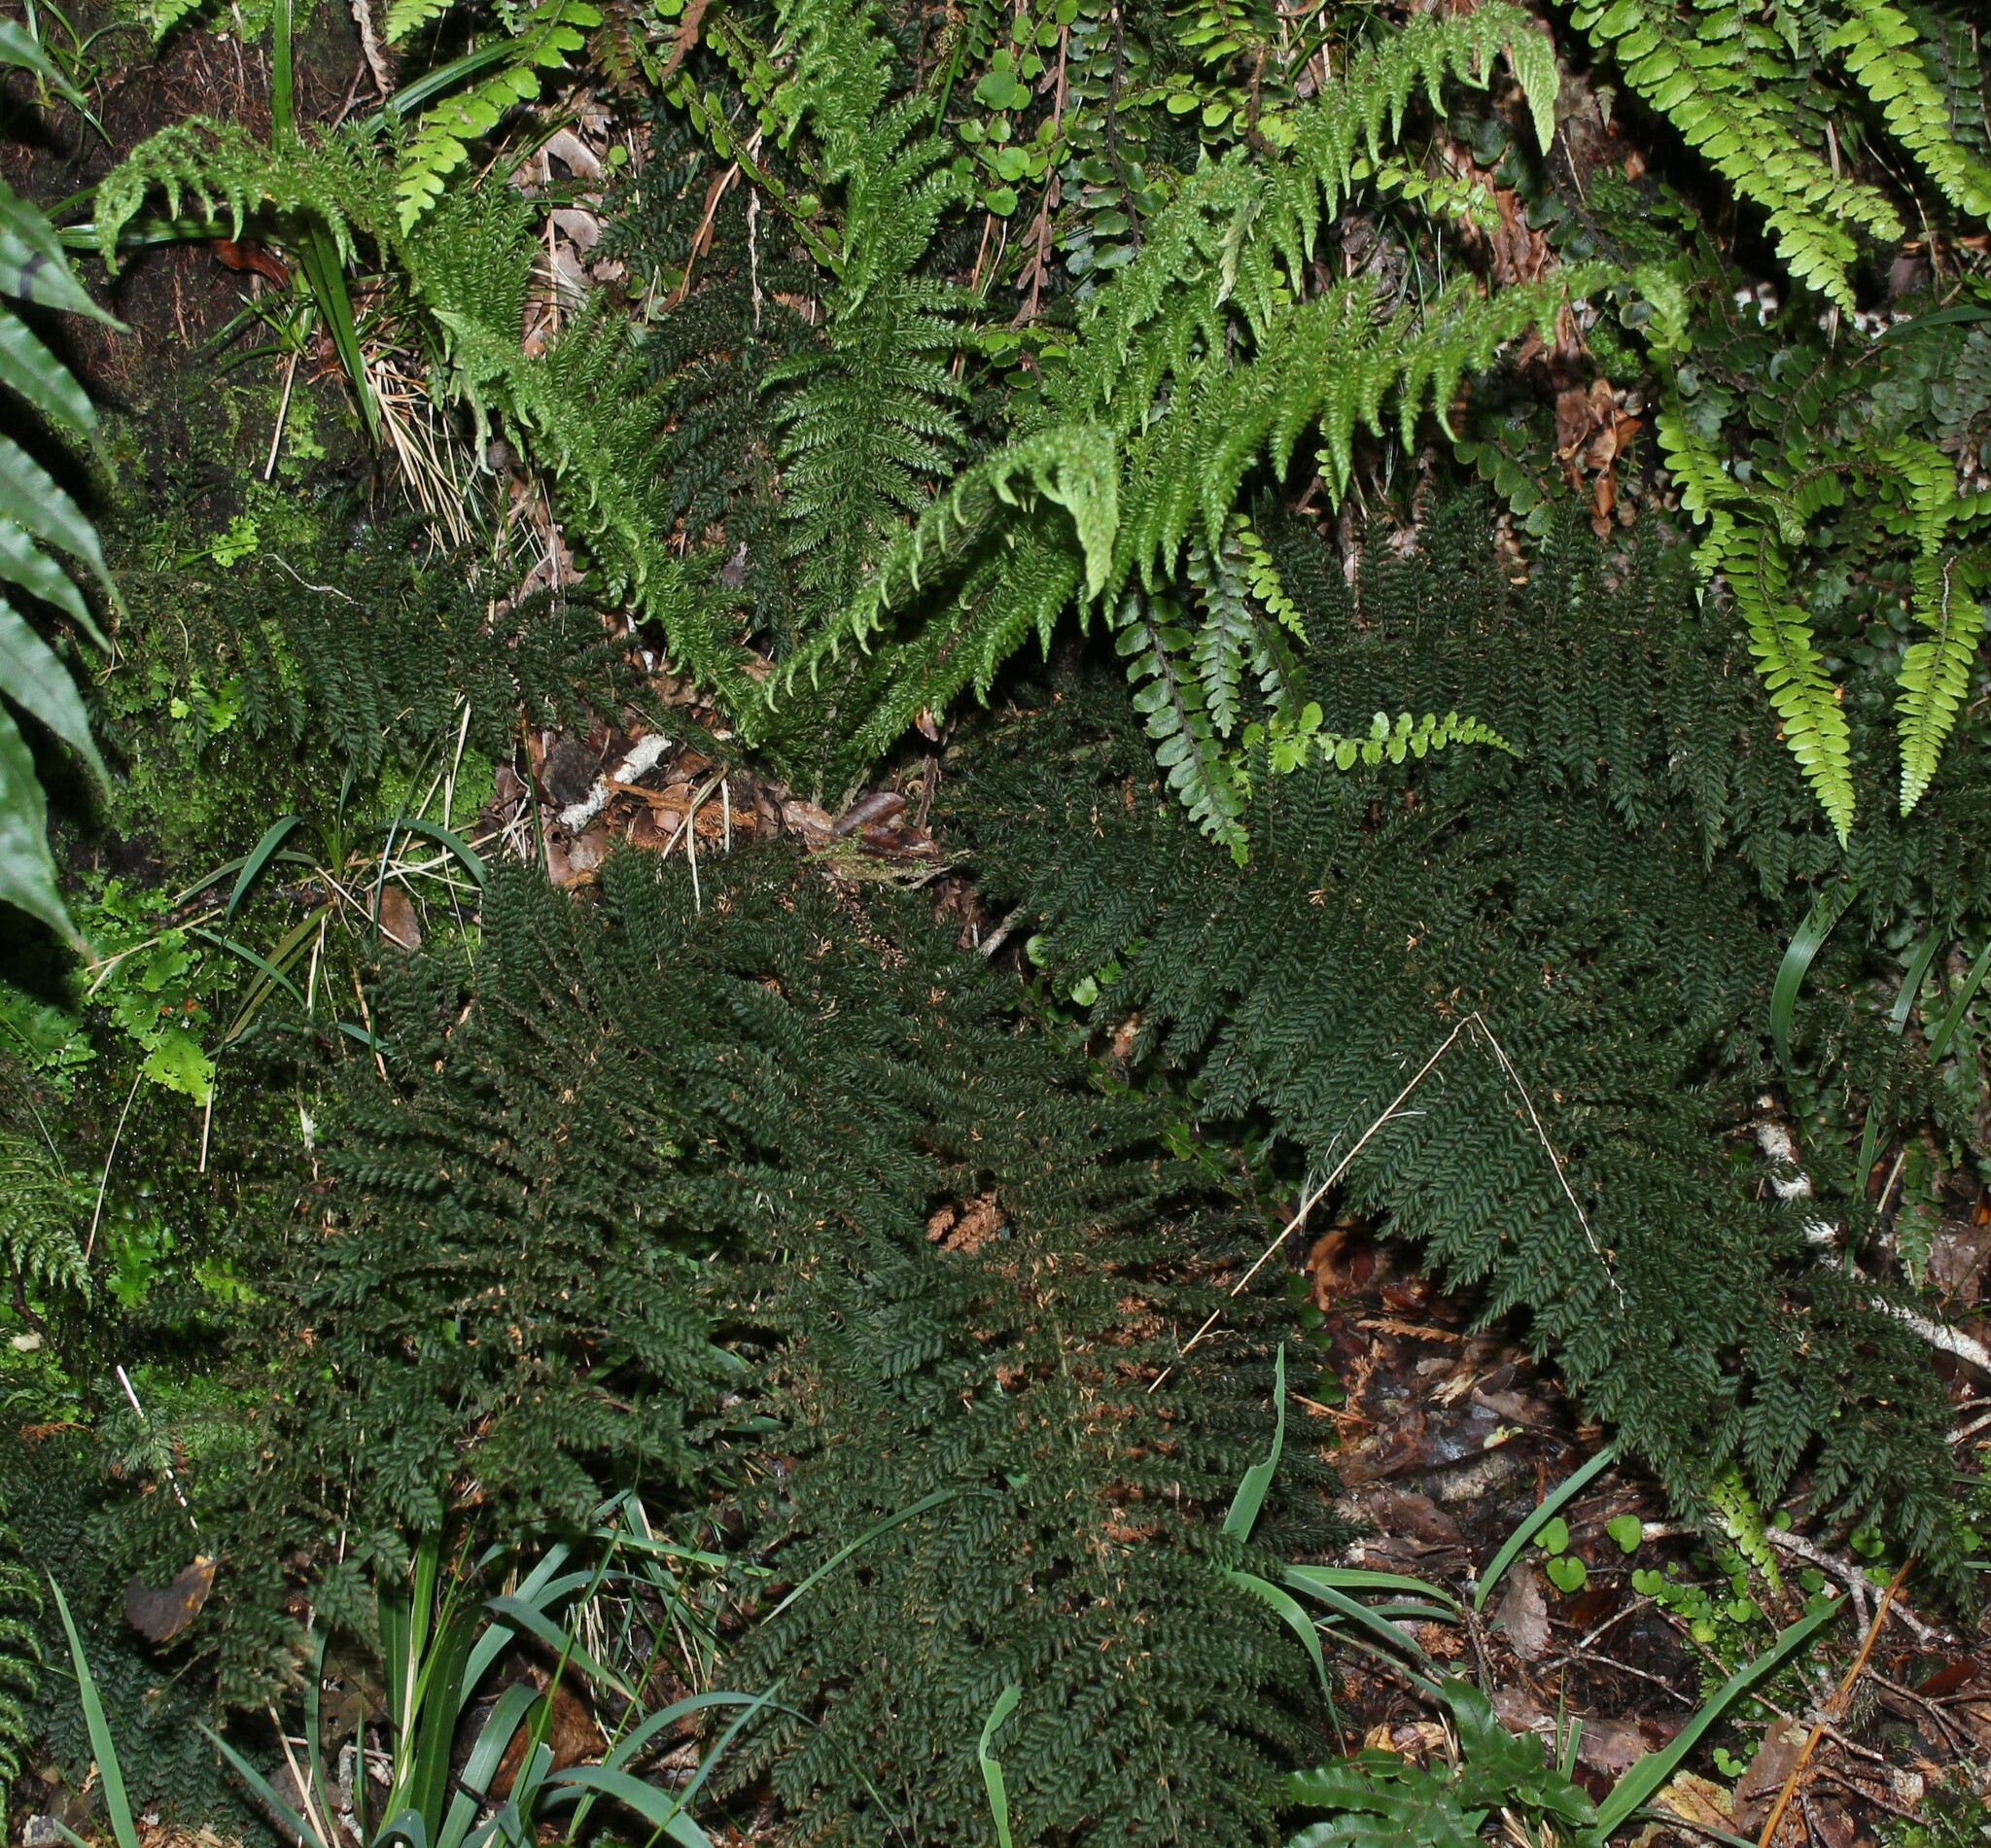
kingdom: Plantae
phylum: Tracheophyta
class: Polypodiopsida
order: Osmundales
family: Osmundaceae
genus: Leptopteris
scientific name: Leptopteris superba
